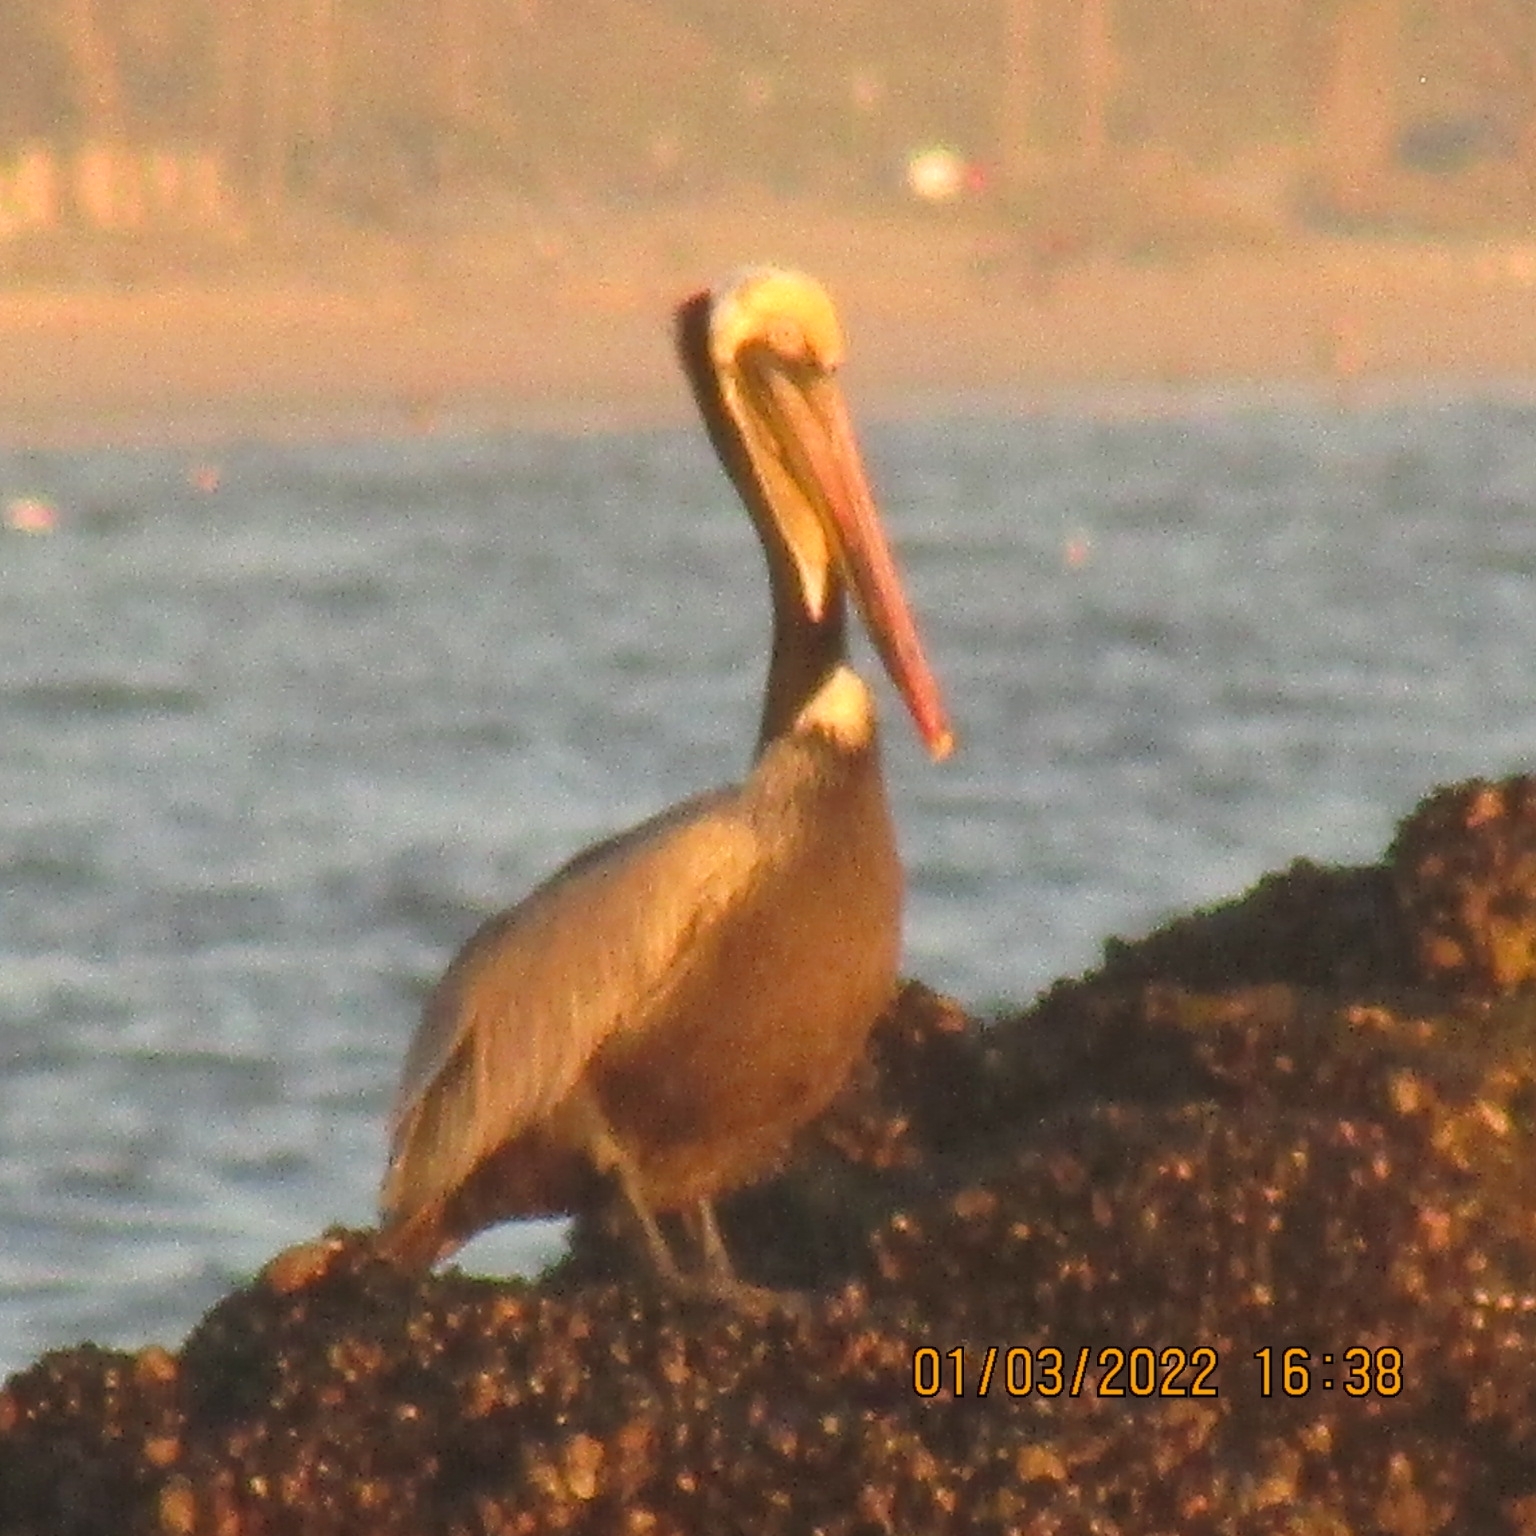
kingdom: Animalia
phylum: Chordata
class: Aves
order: Pelecaniformes
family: Pelecanidae
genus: Pelecanus
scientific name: Pelecanus occidentalis
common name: Brown pelican
